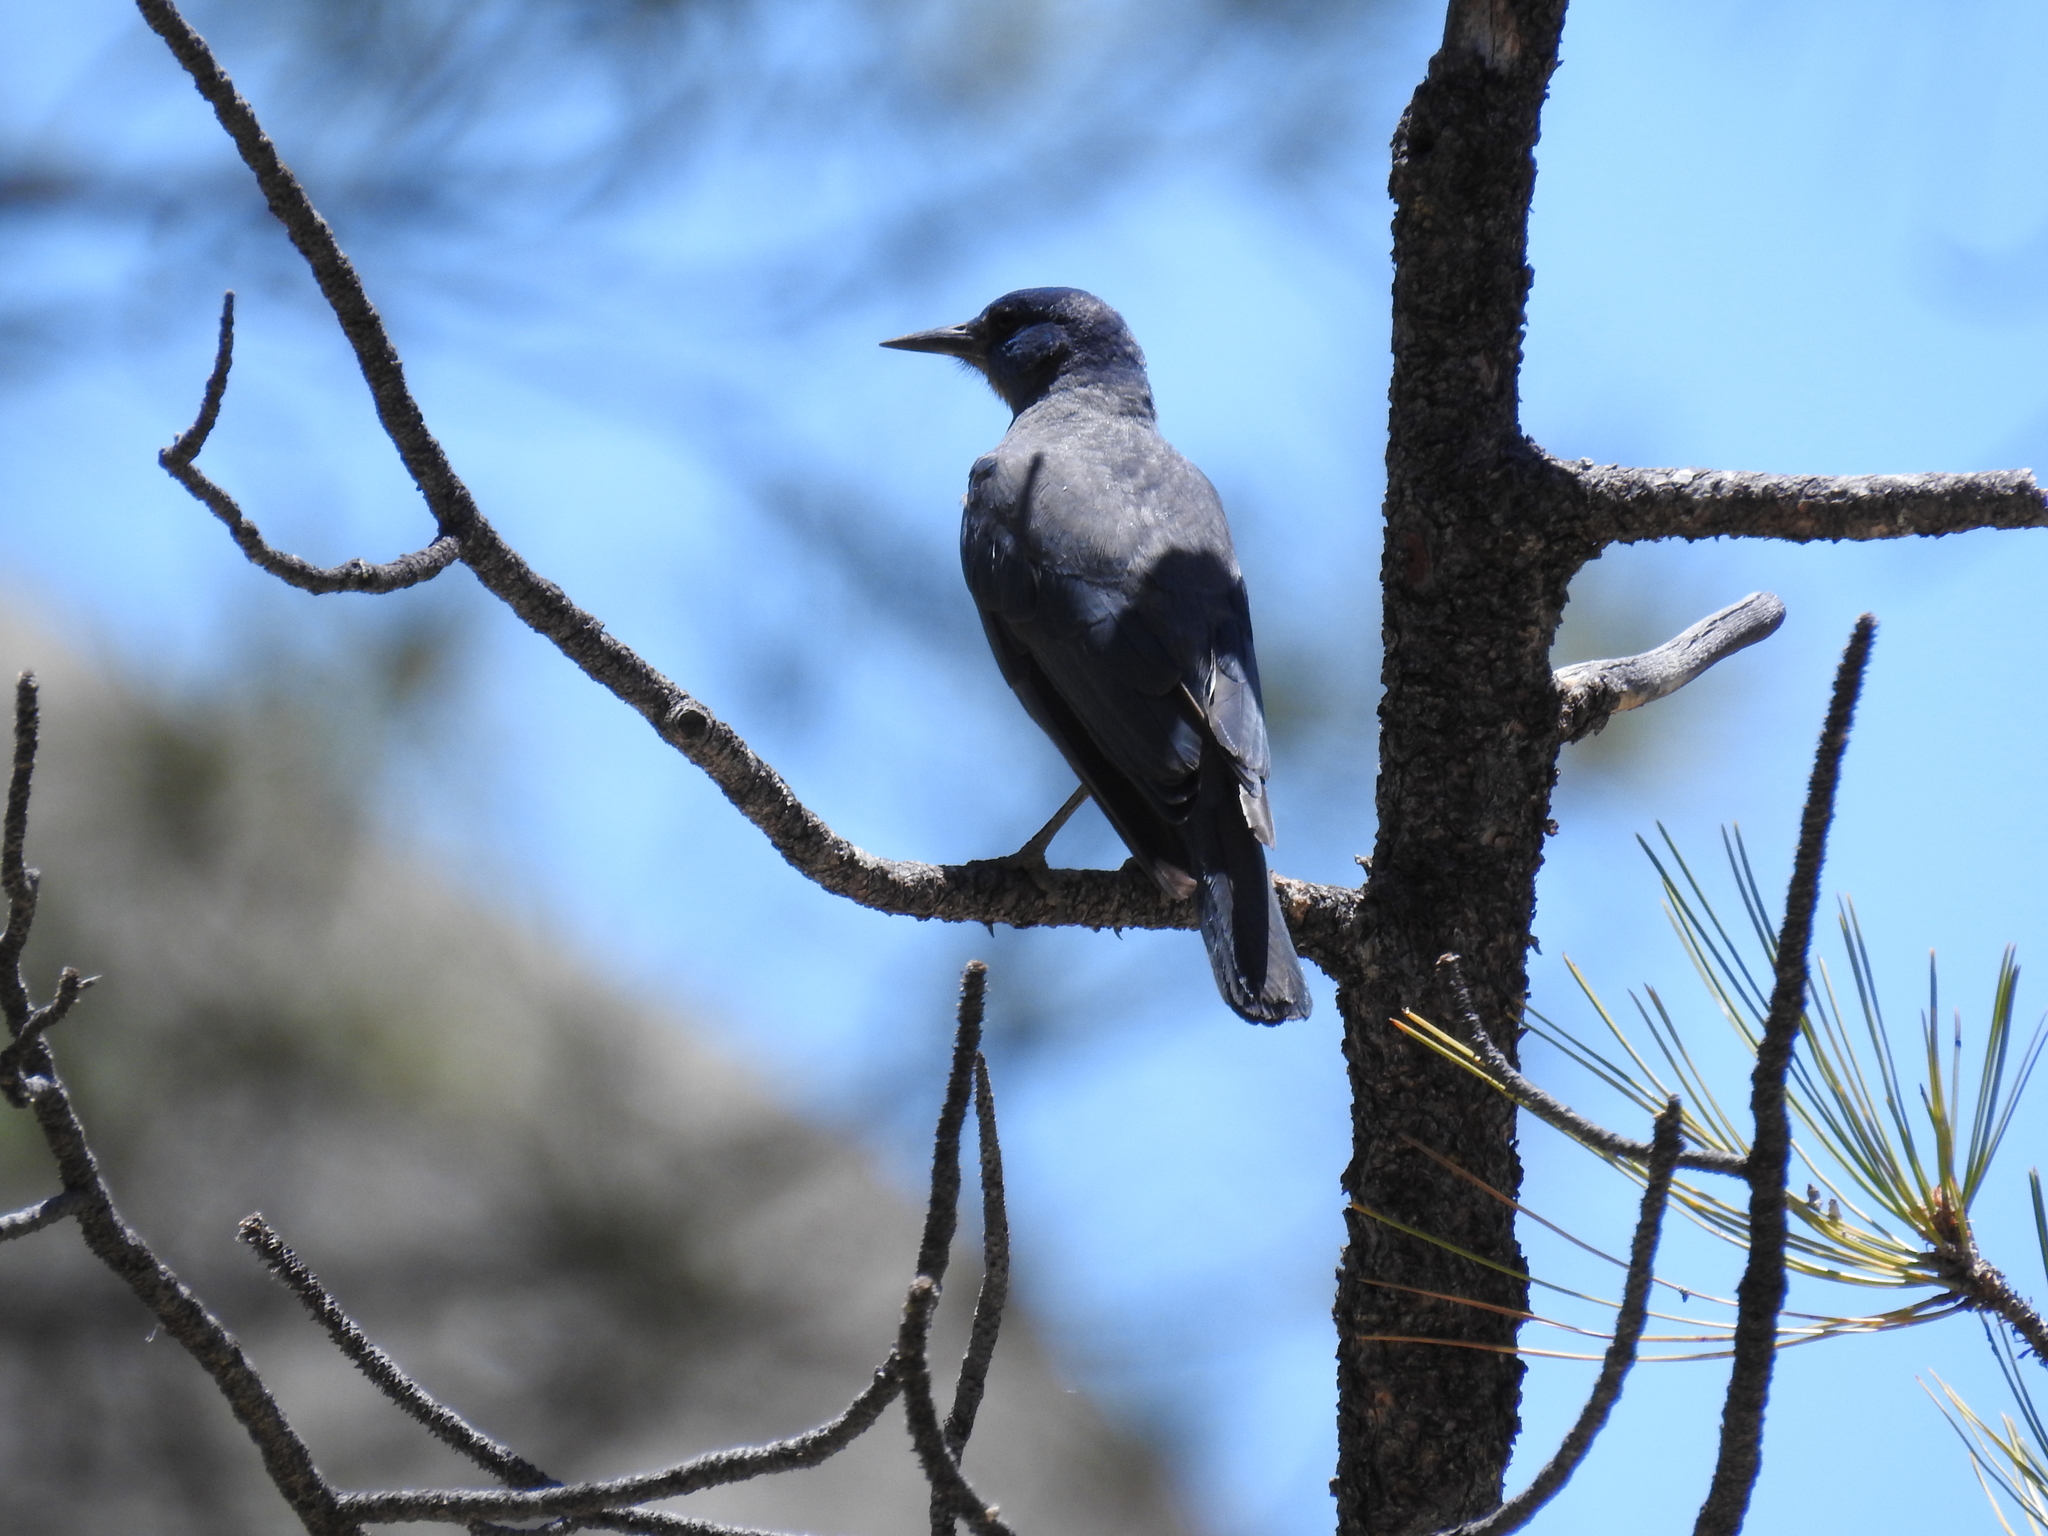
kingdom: Animalia
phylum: Chordata
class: Aves
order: Passeriformes
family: Corvidae
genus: Gymnorhinus
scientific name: Gymnorhinus cyanocephalus
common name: Pinyon jay
